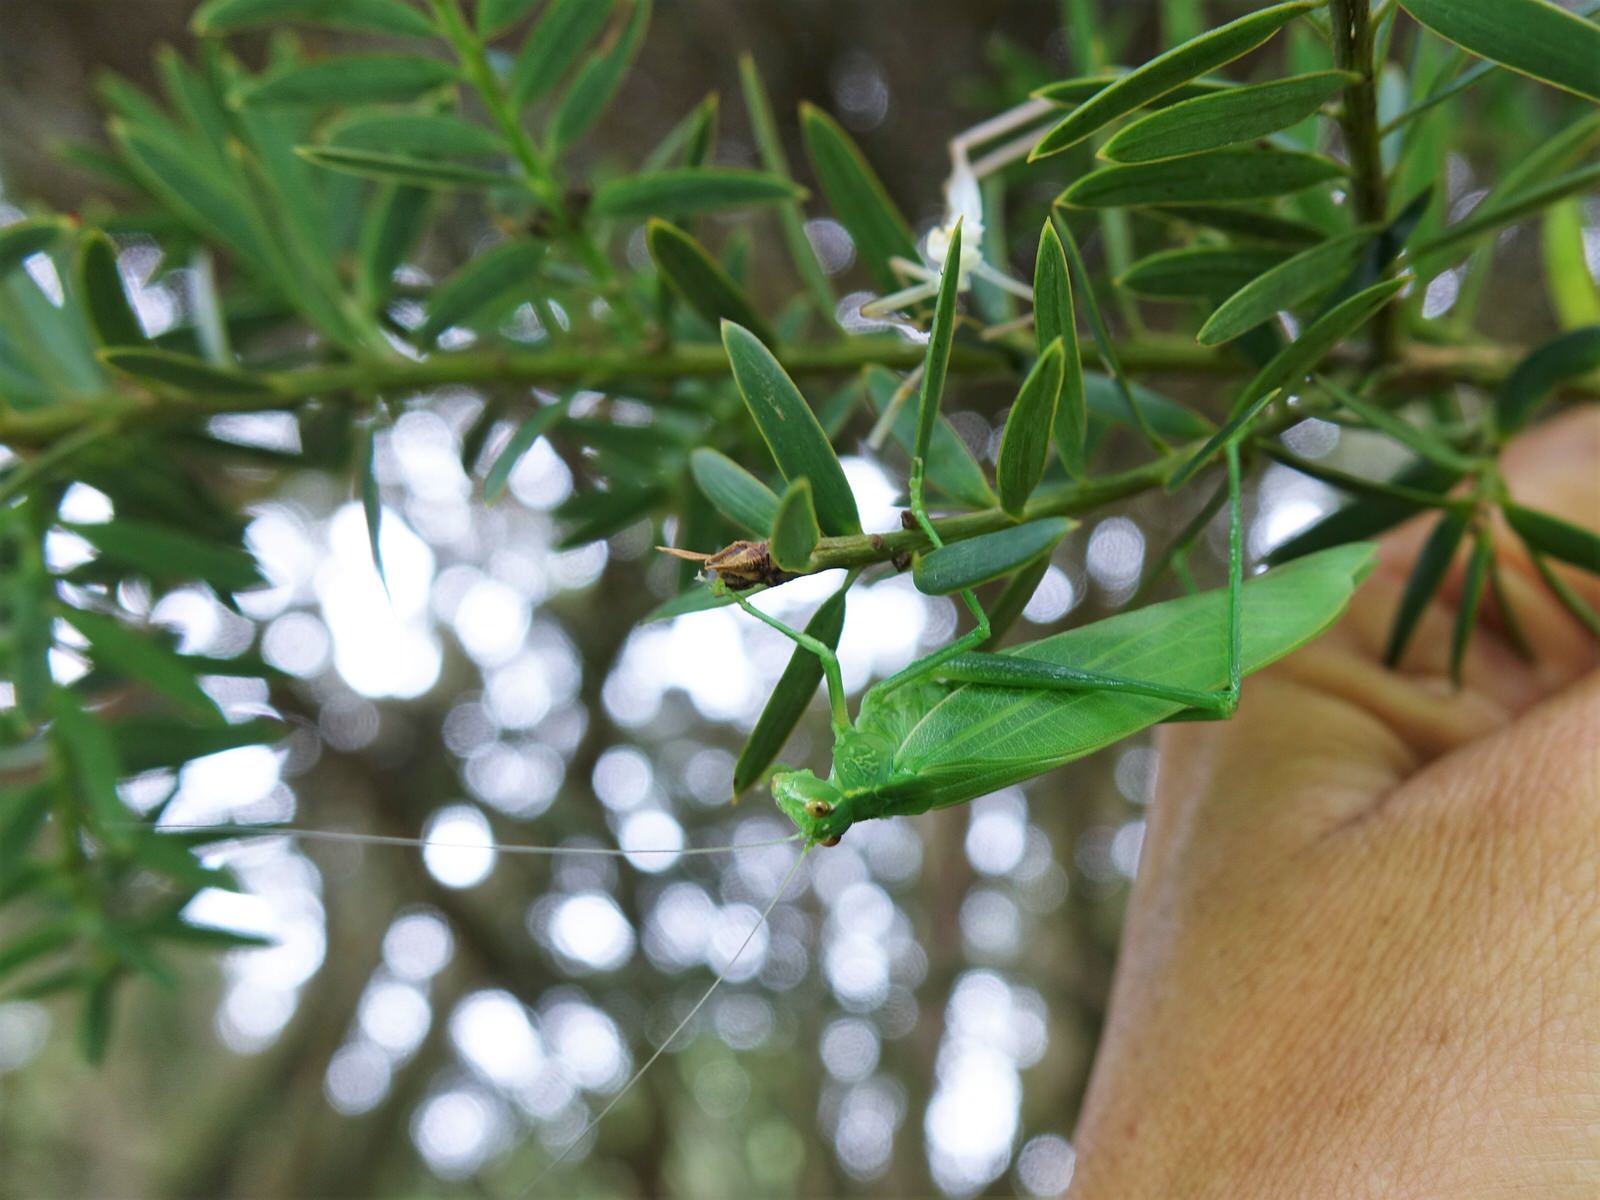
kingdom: Animalia
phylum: Arthropoda
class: Insecta
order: Orthoptera
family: Tettigoniidae
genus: Caedicia
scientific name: Caedicia simplex
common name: Common garden katydid
